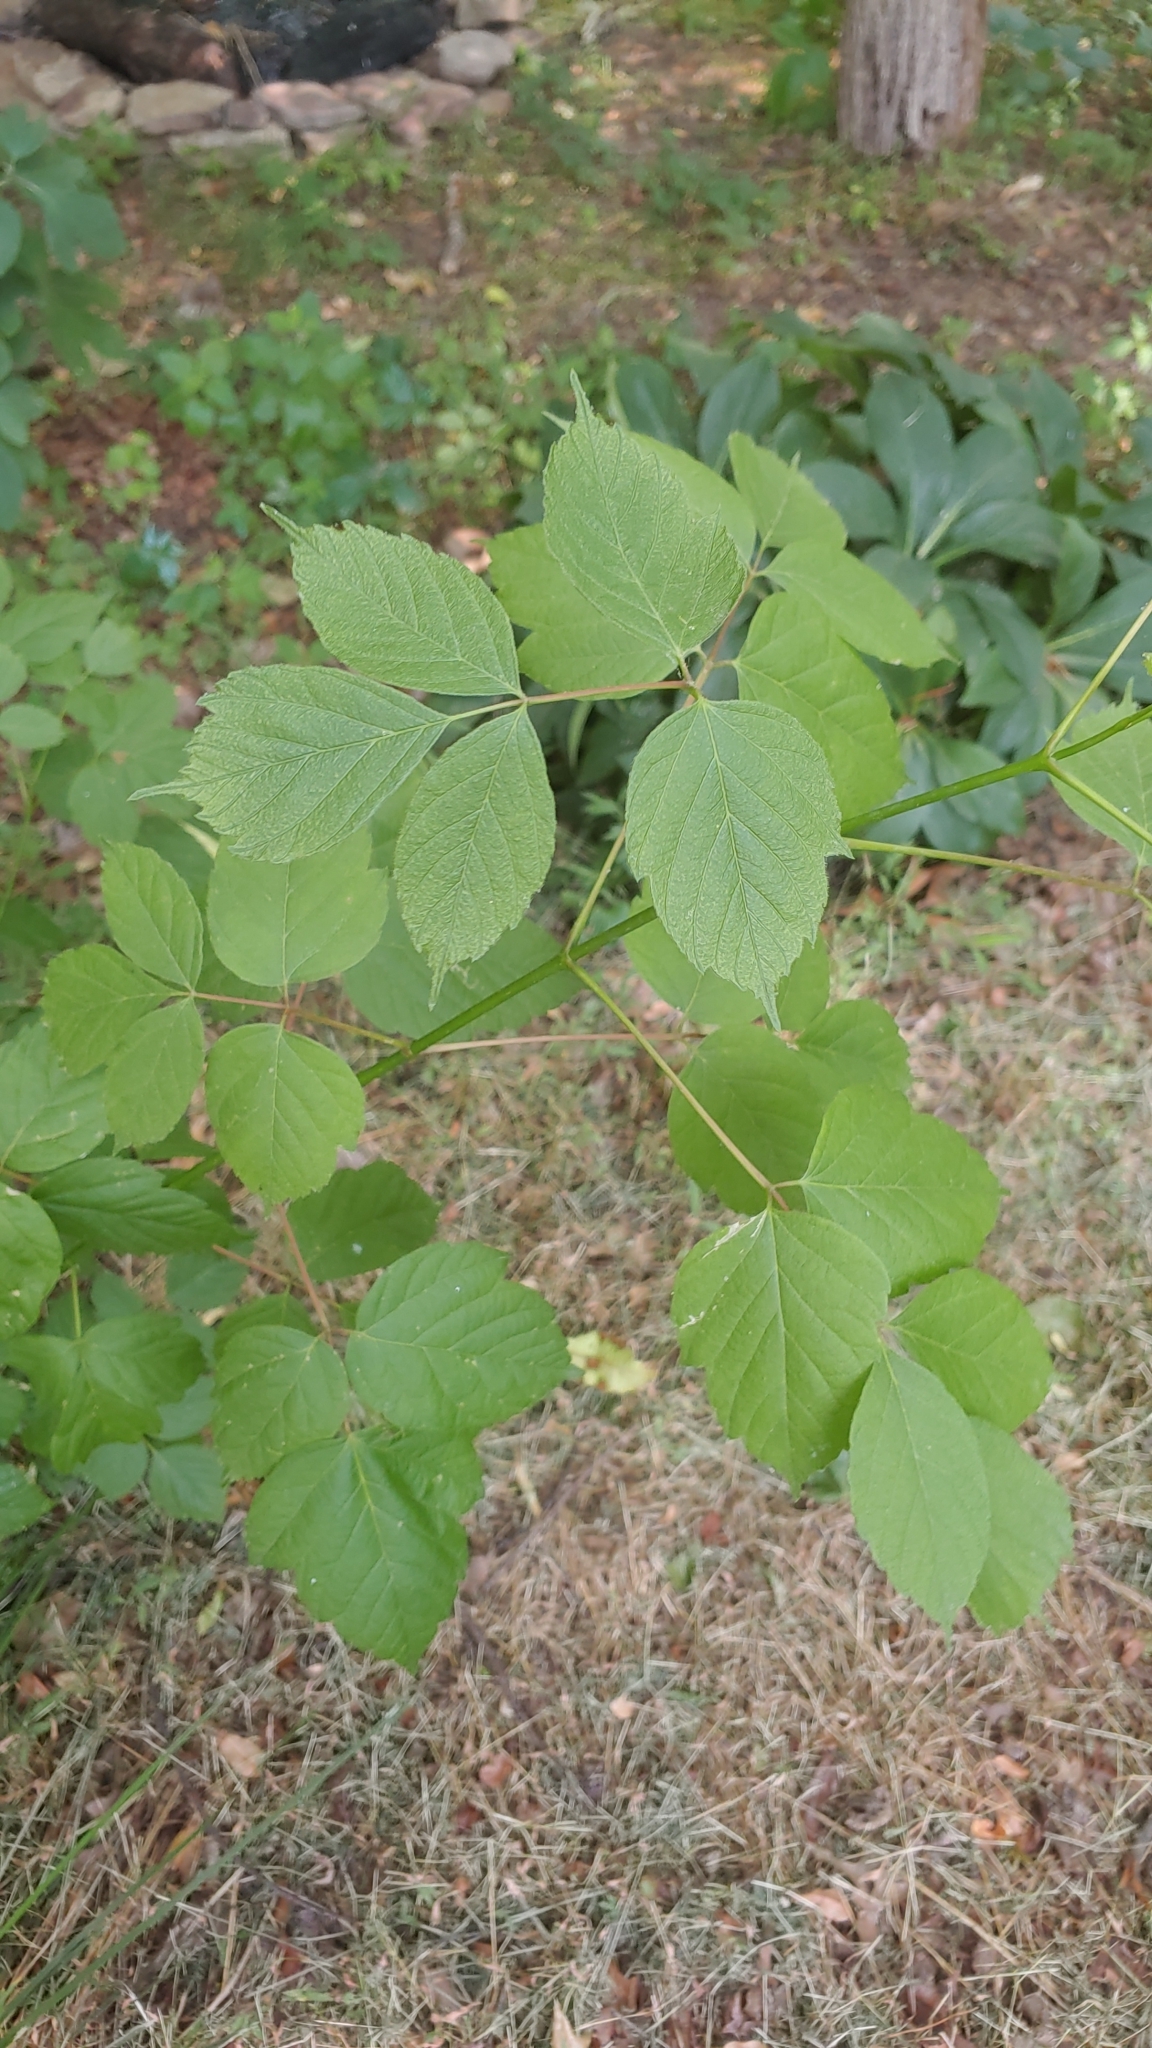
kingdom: Plantae
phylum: Tracheophyta
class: Magnoliopsida
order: Sapindales
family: Sapindaceae
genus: Acer
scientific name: Acer negundo
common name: Ashleaf maple
